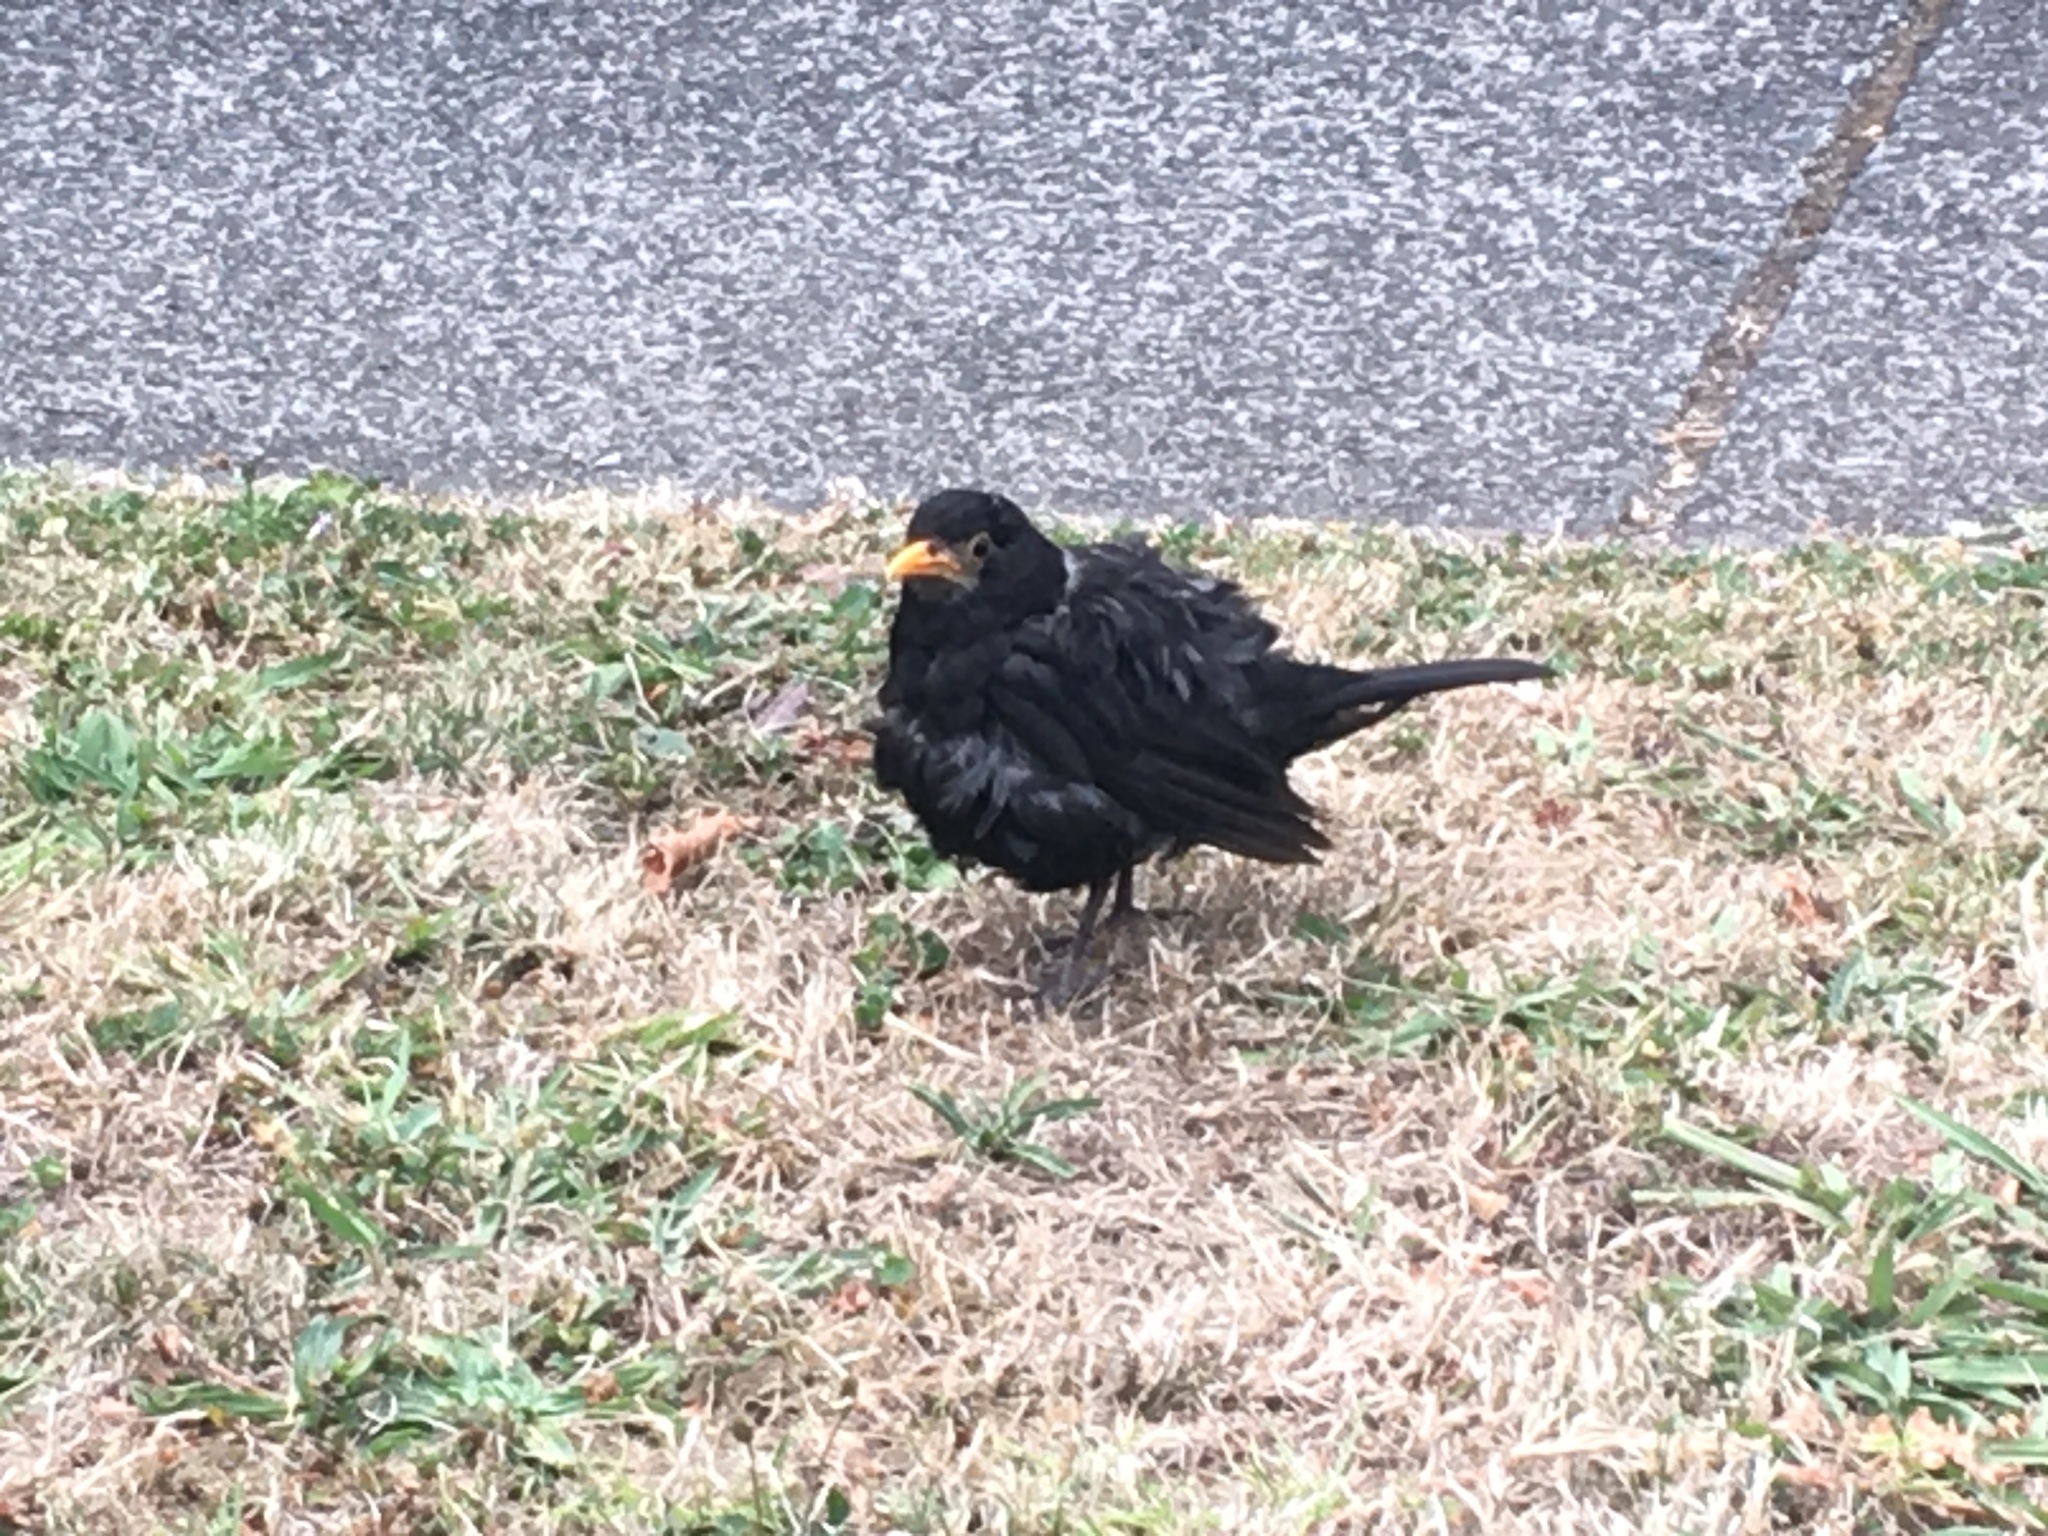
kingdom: Animalia
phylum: Chordata
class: Aves
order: Passeriformes
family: Turdidae
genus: Turdus
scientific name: Turdus merula
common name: Common blackbird
